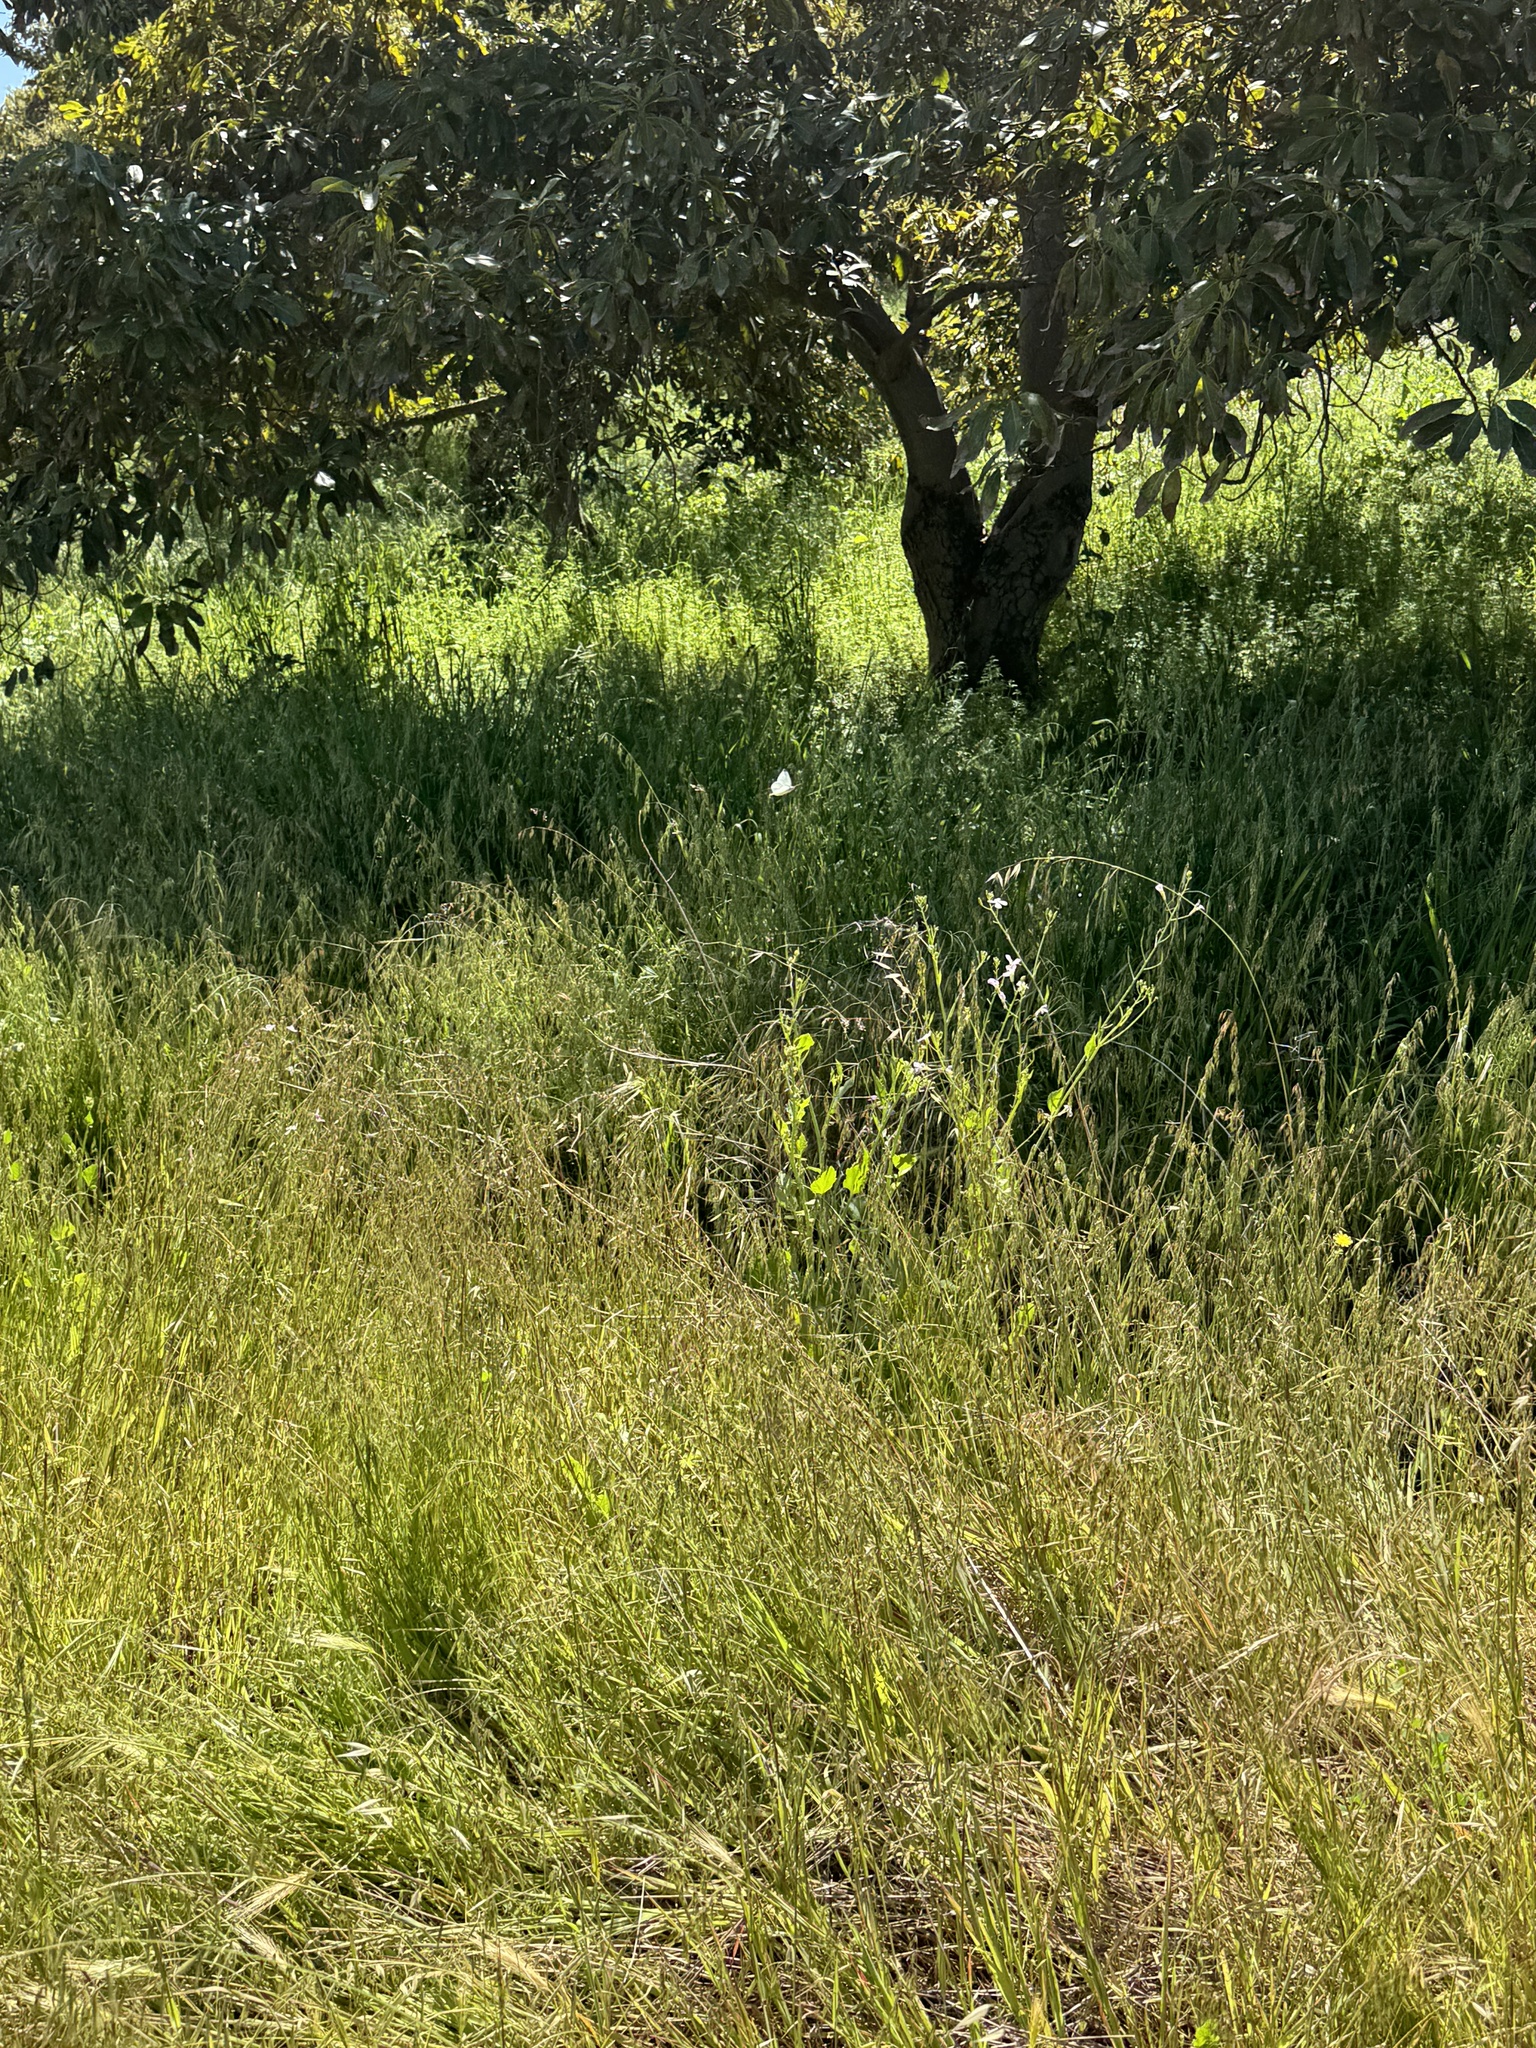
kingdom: Animalia
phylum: Arthropoda
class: Insecta
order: Lepidoptera
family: Pieridae
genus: Pieris
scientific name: Pieris rapae
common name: Small white
